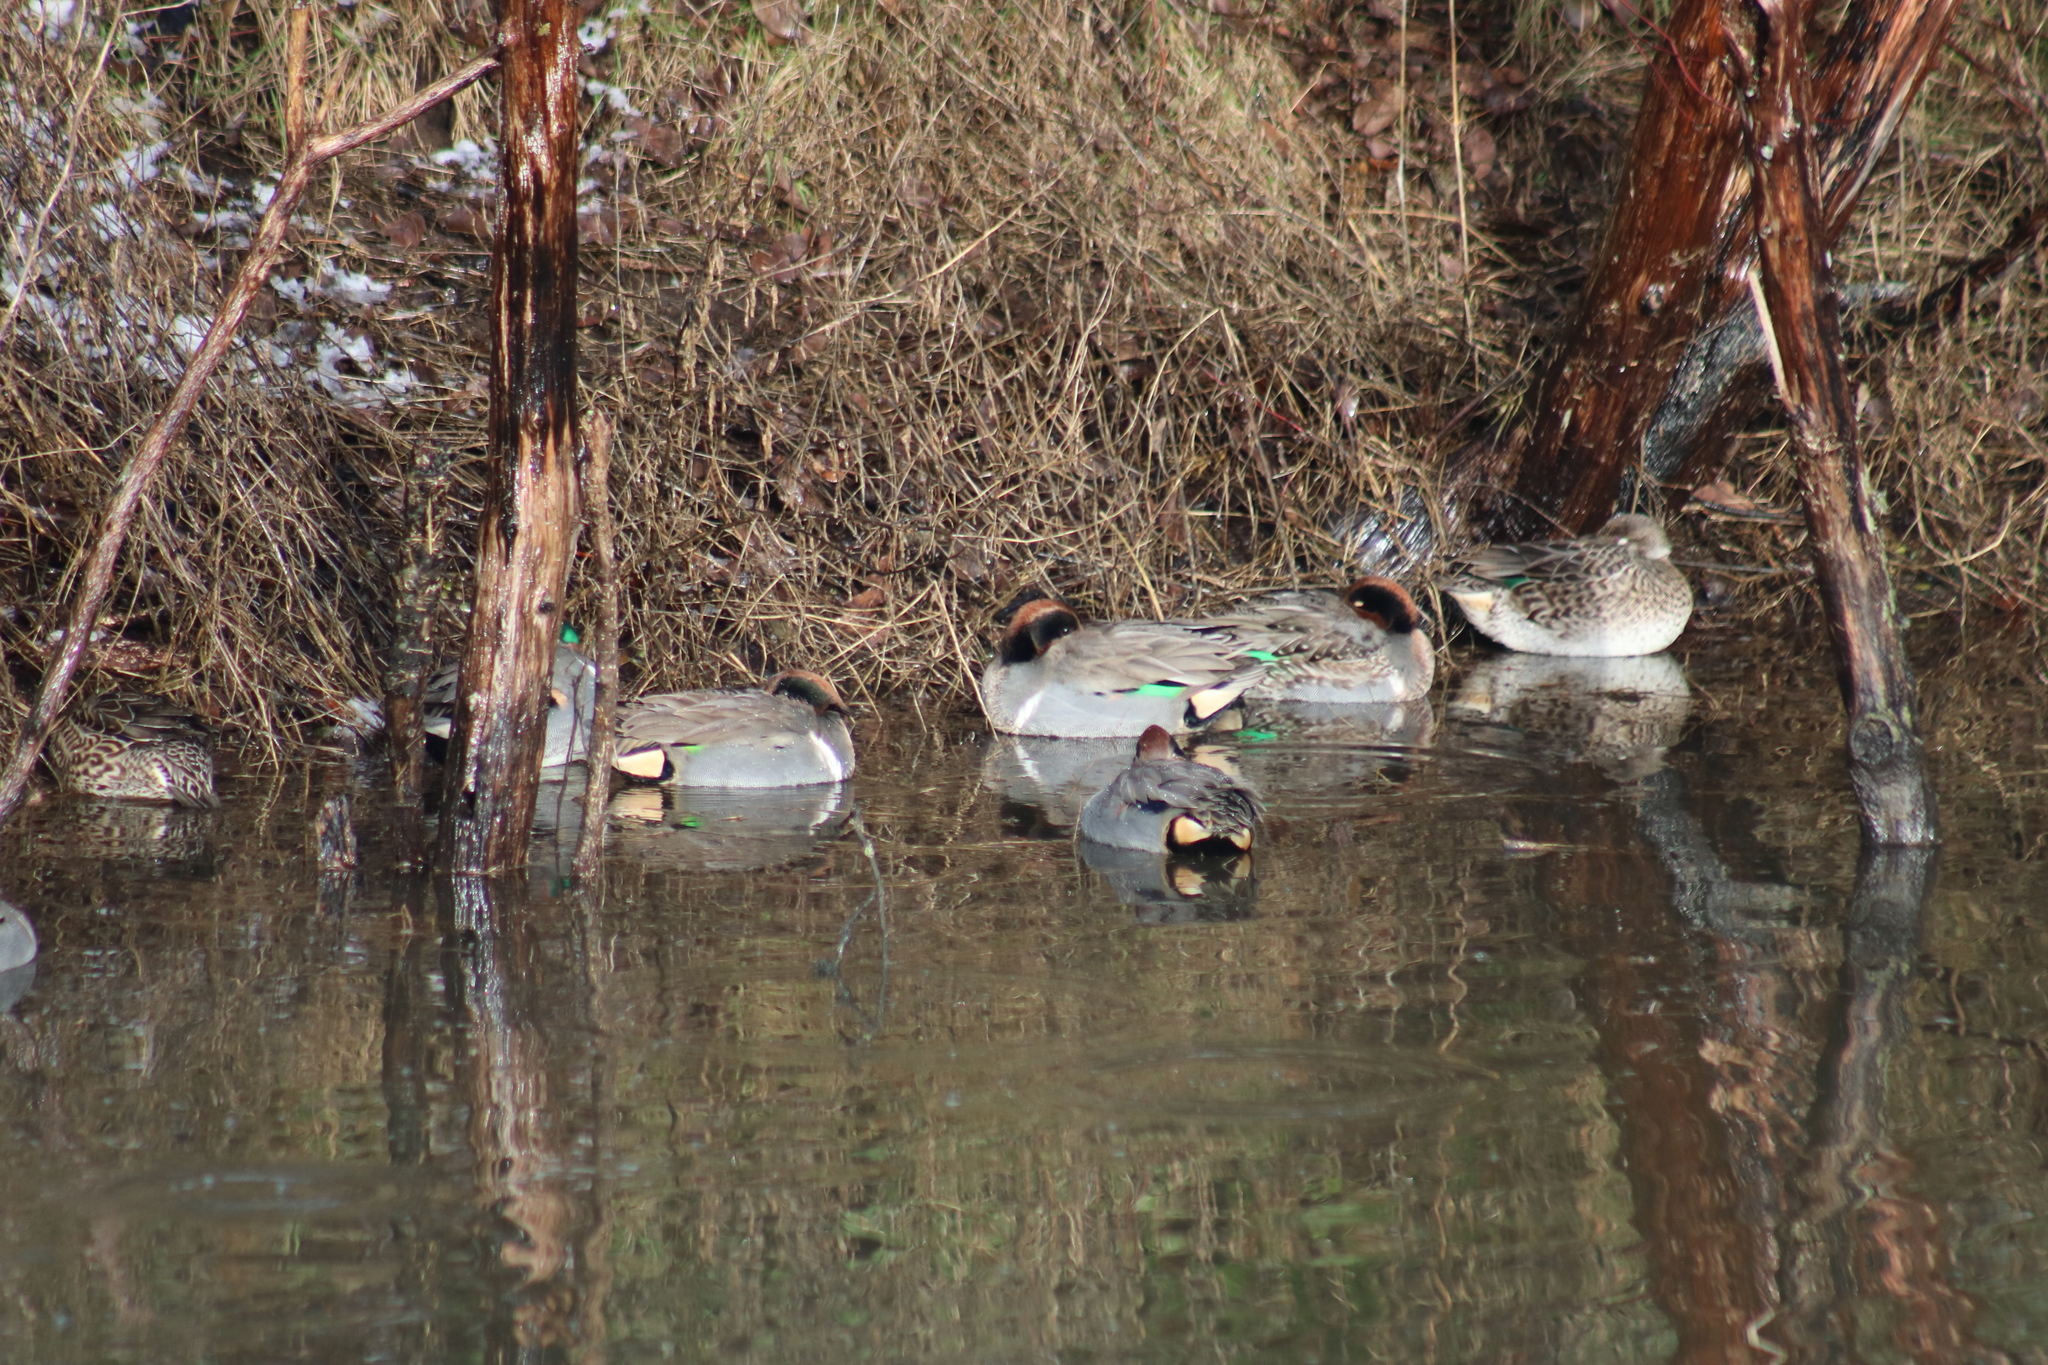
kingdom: Animalia
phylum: Chordata
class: Aves
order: Anseriformes
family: Anatidae
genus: Anas
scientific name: Anas crecca
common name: Eurasian teal
